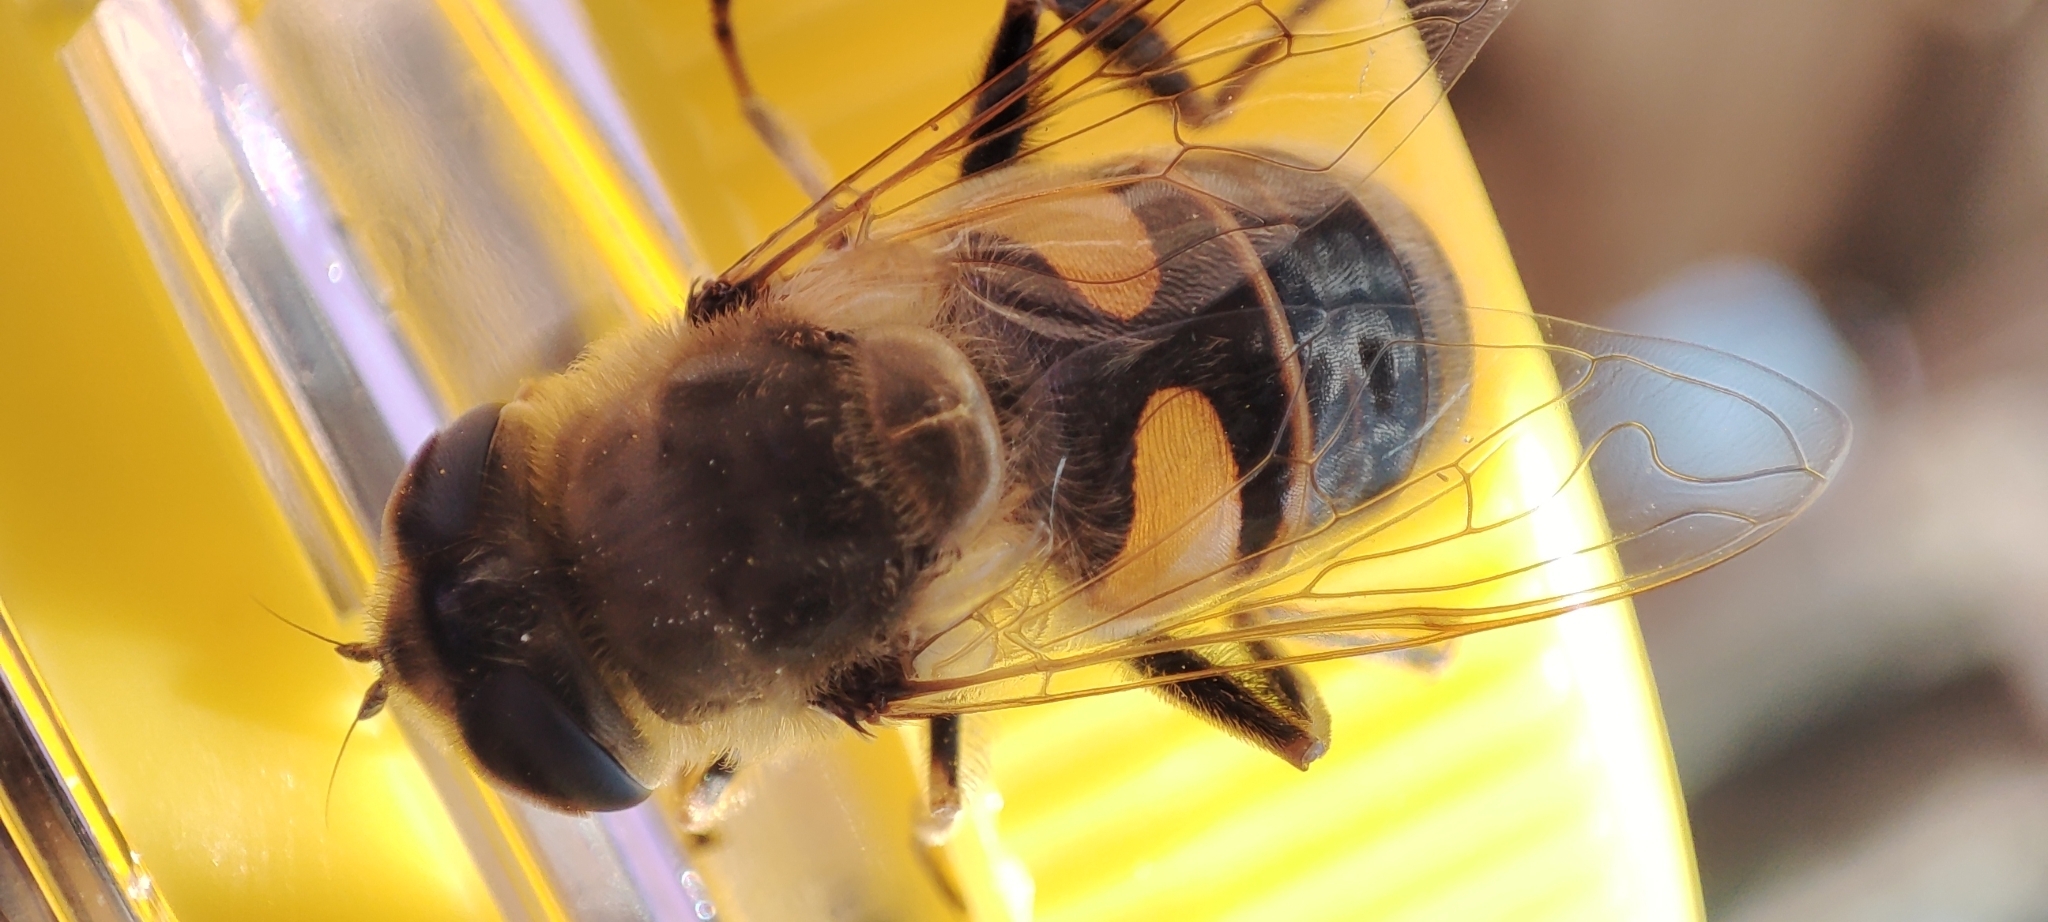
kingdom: Animalia
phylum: Arthropoda
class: Insecta
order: Diptera
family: Syrphidae
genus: Eristalis
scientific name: Eristalis tenax
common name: Drone fly
